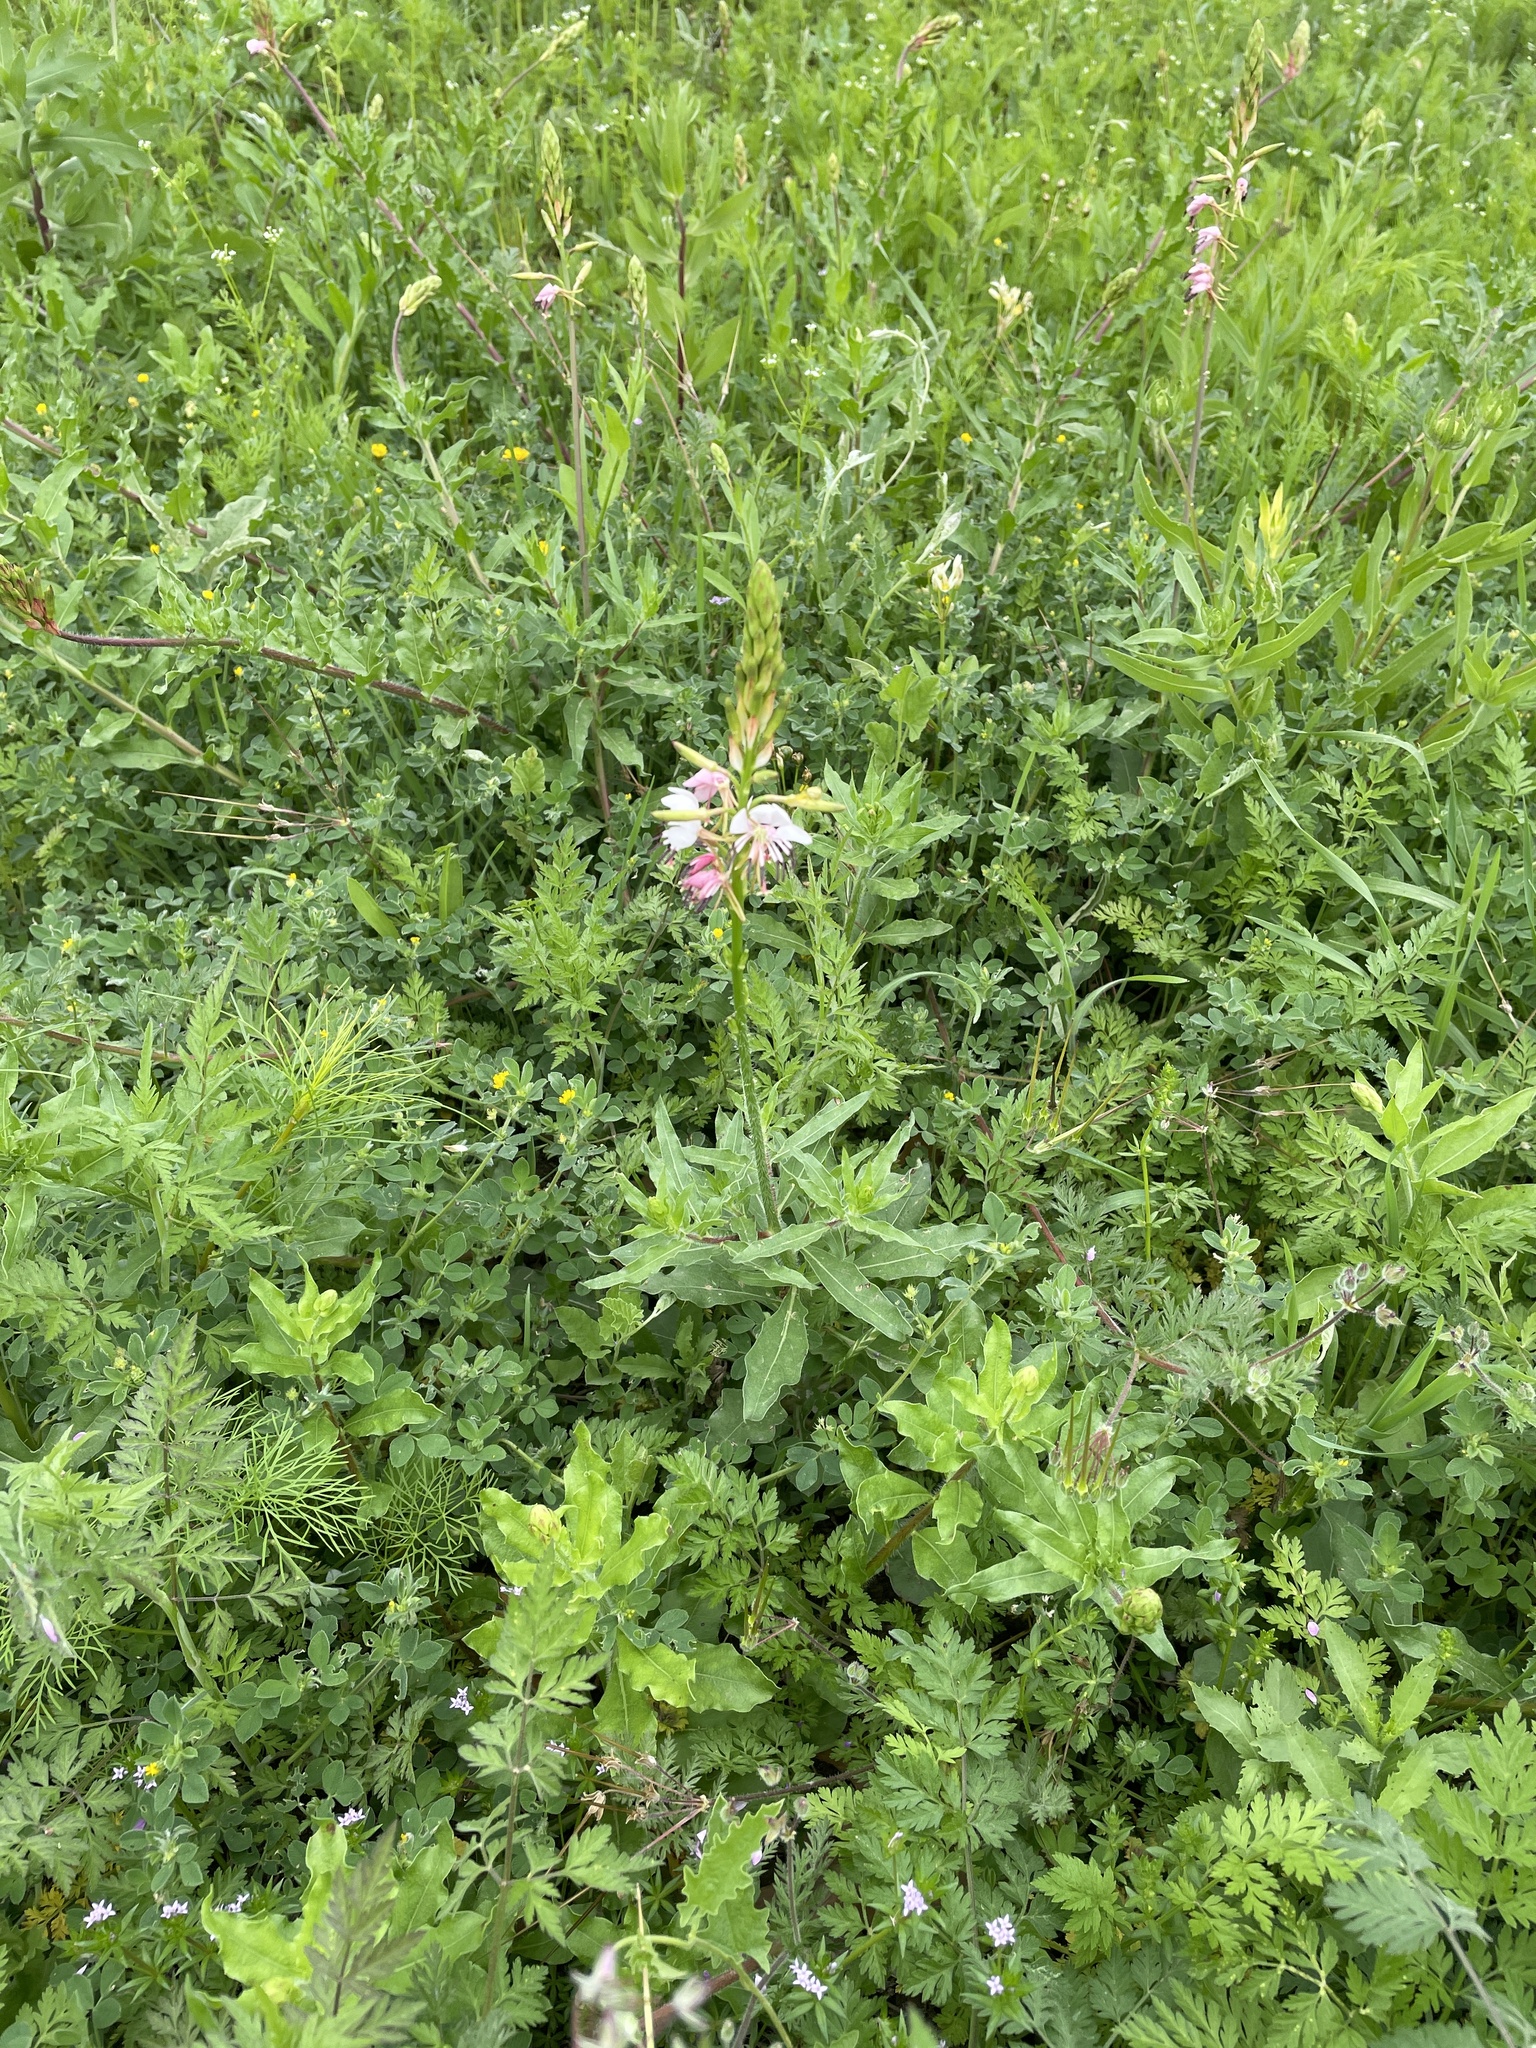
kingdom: Plantae
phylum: Tracheophyta
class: Magnoliopsida
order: Myrtales
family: Onagraceae
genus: Oenothera
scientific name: Oenothera suffulta
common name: Kisses
